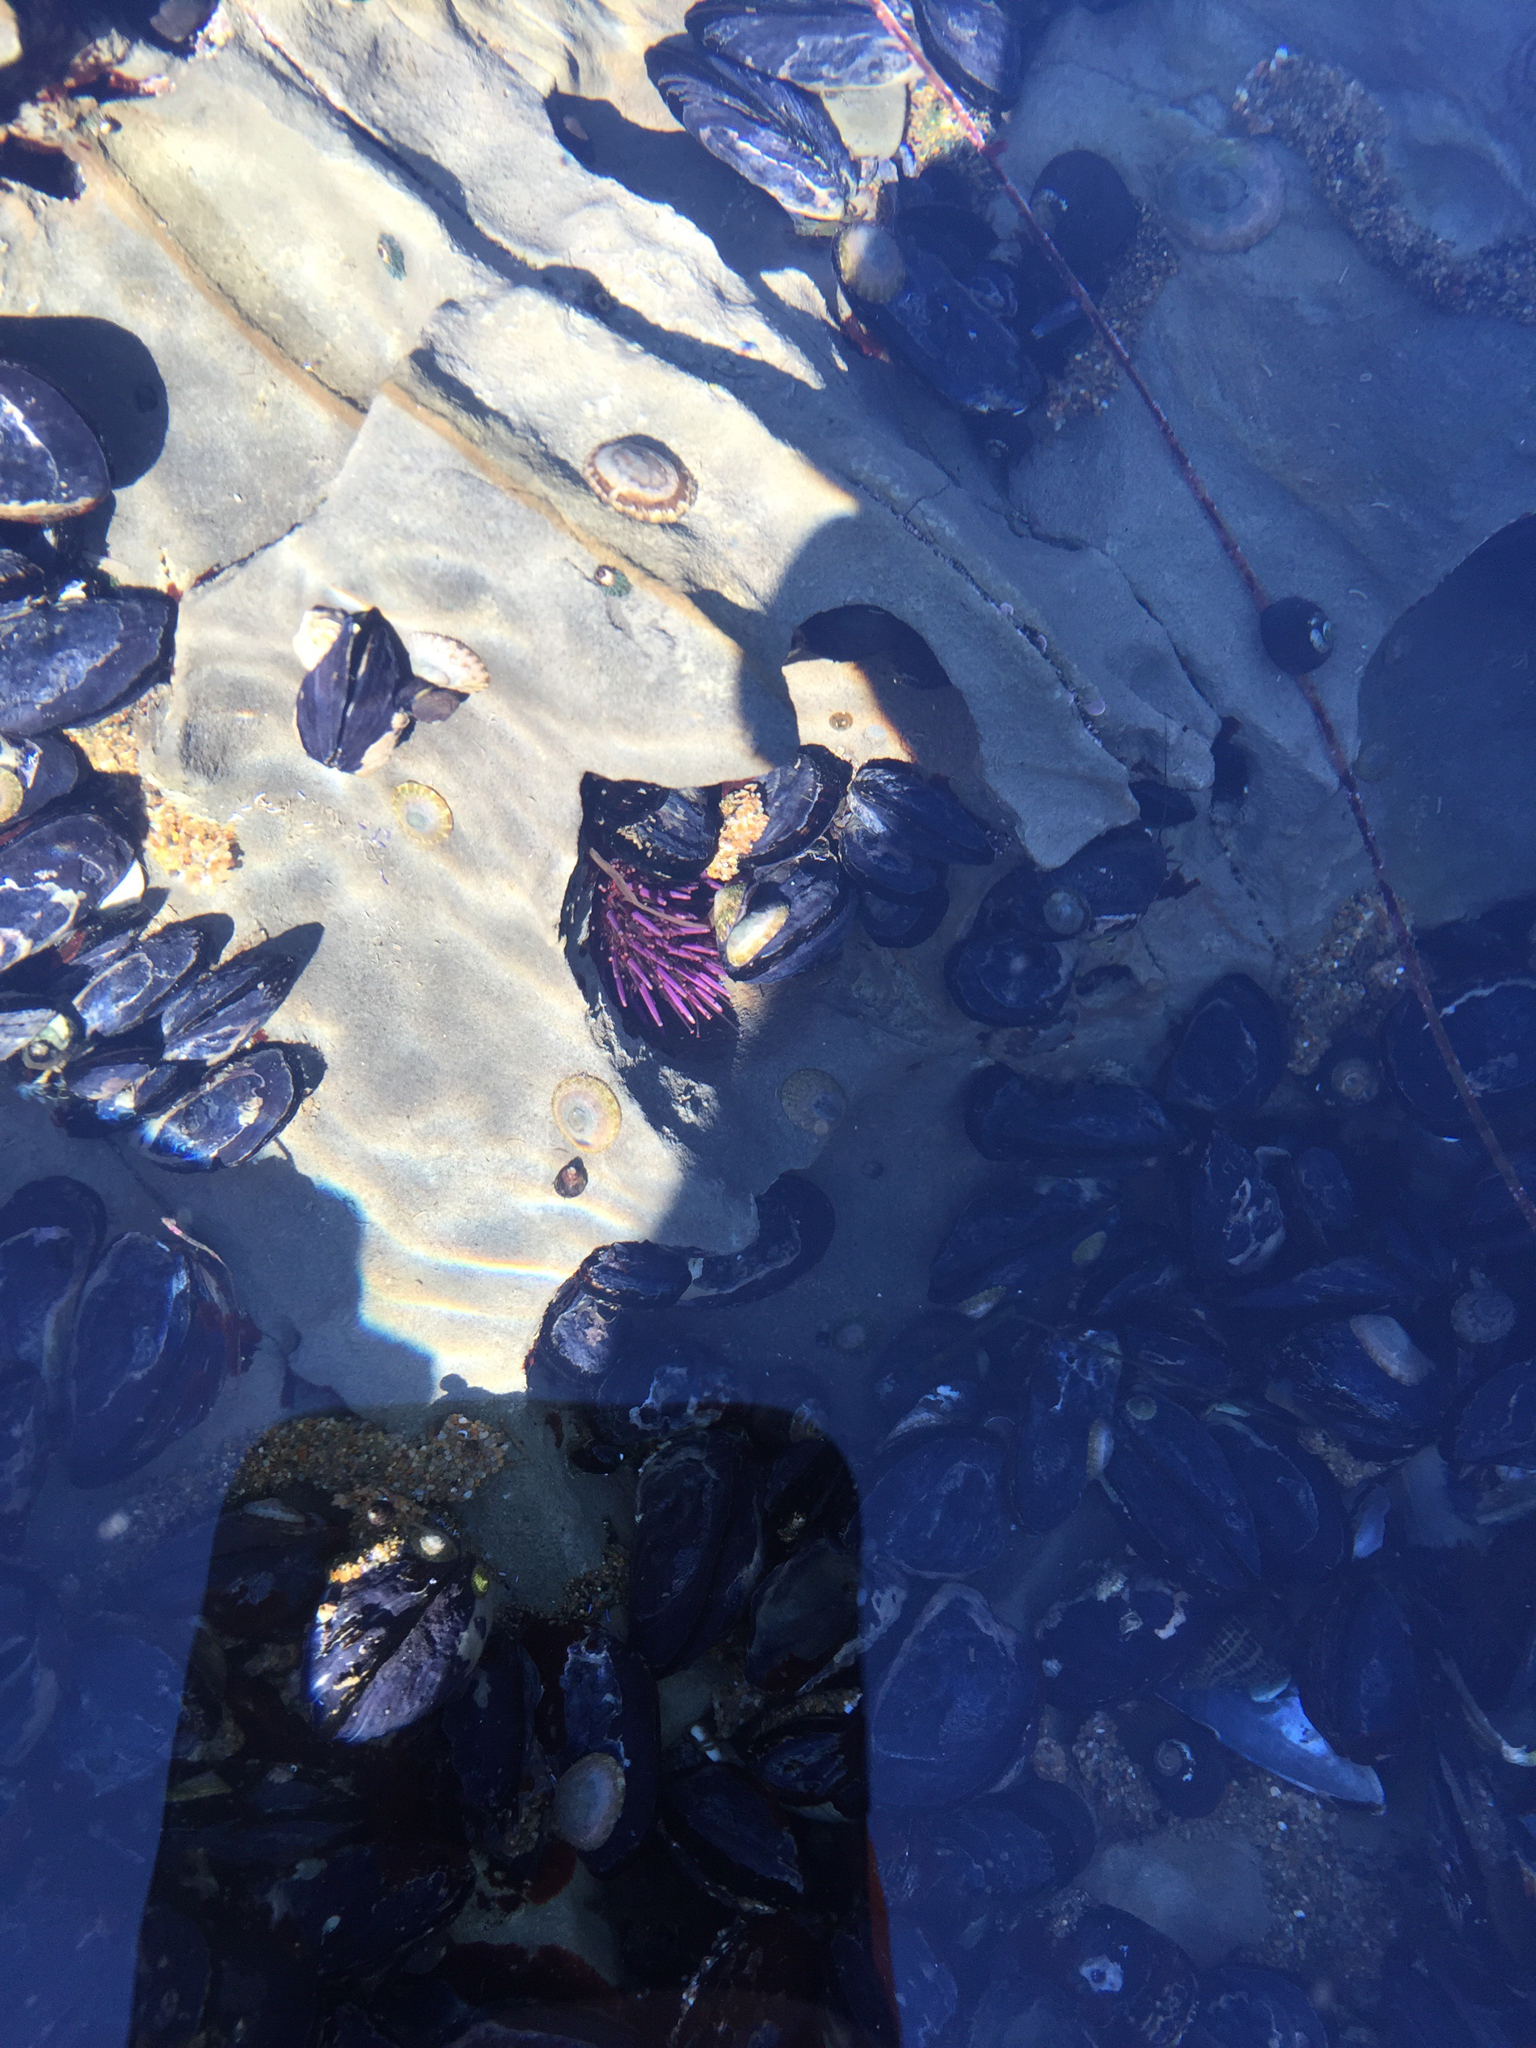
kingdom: Animalia
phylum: Echinodermata
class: Echinoidea
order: Camarodonta
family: Strongylocentrotidae
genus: Strongylocentrotus
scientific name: Strongylocentrotus purpuratus
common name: Purple sea urchin
